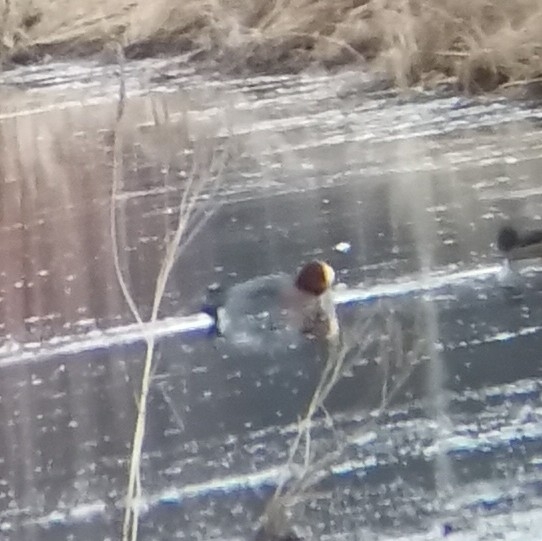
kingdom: Animalia
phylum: Chordata
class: Aves
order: Anseriformes
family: Anatidae
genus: Mareca
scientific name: Mareca penelope
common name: Eurasian wigeon
